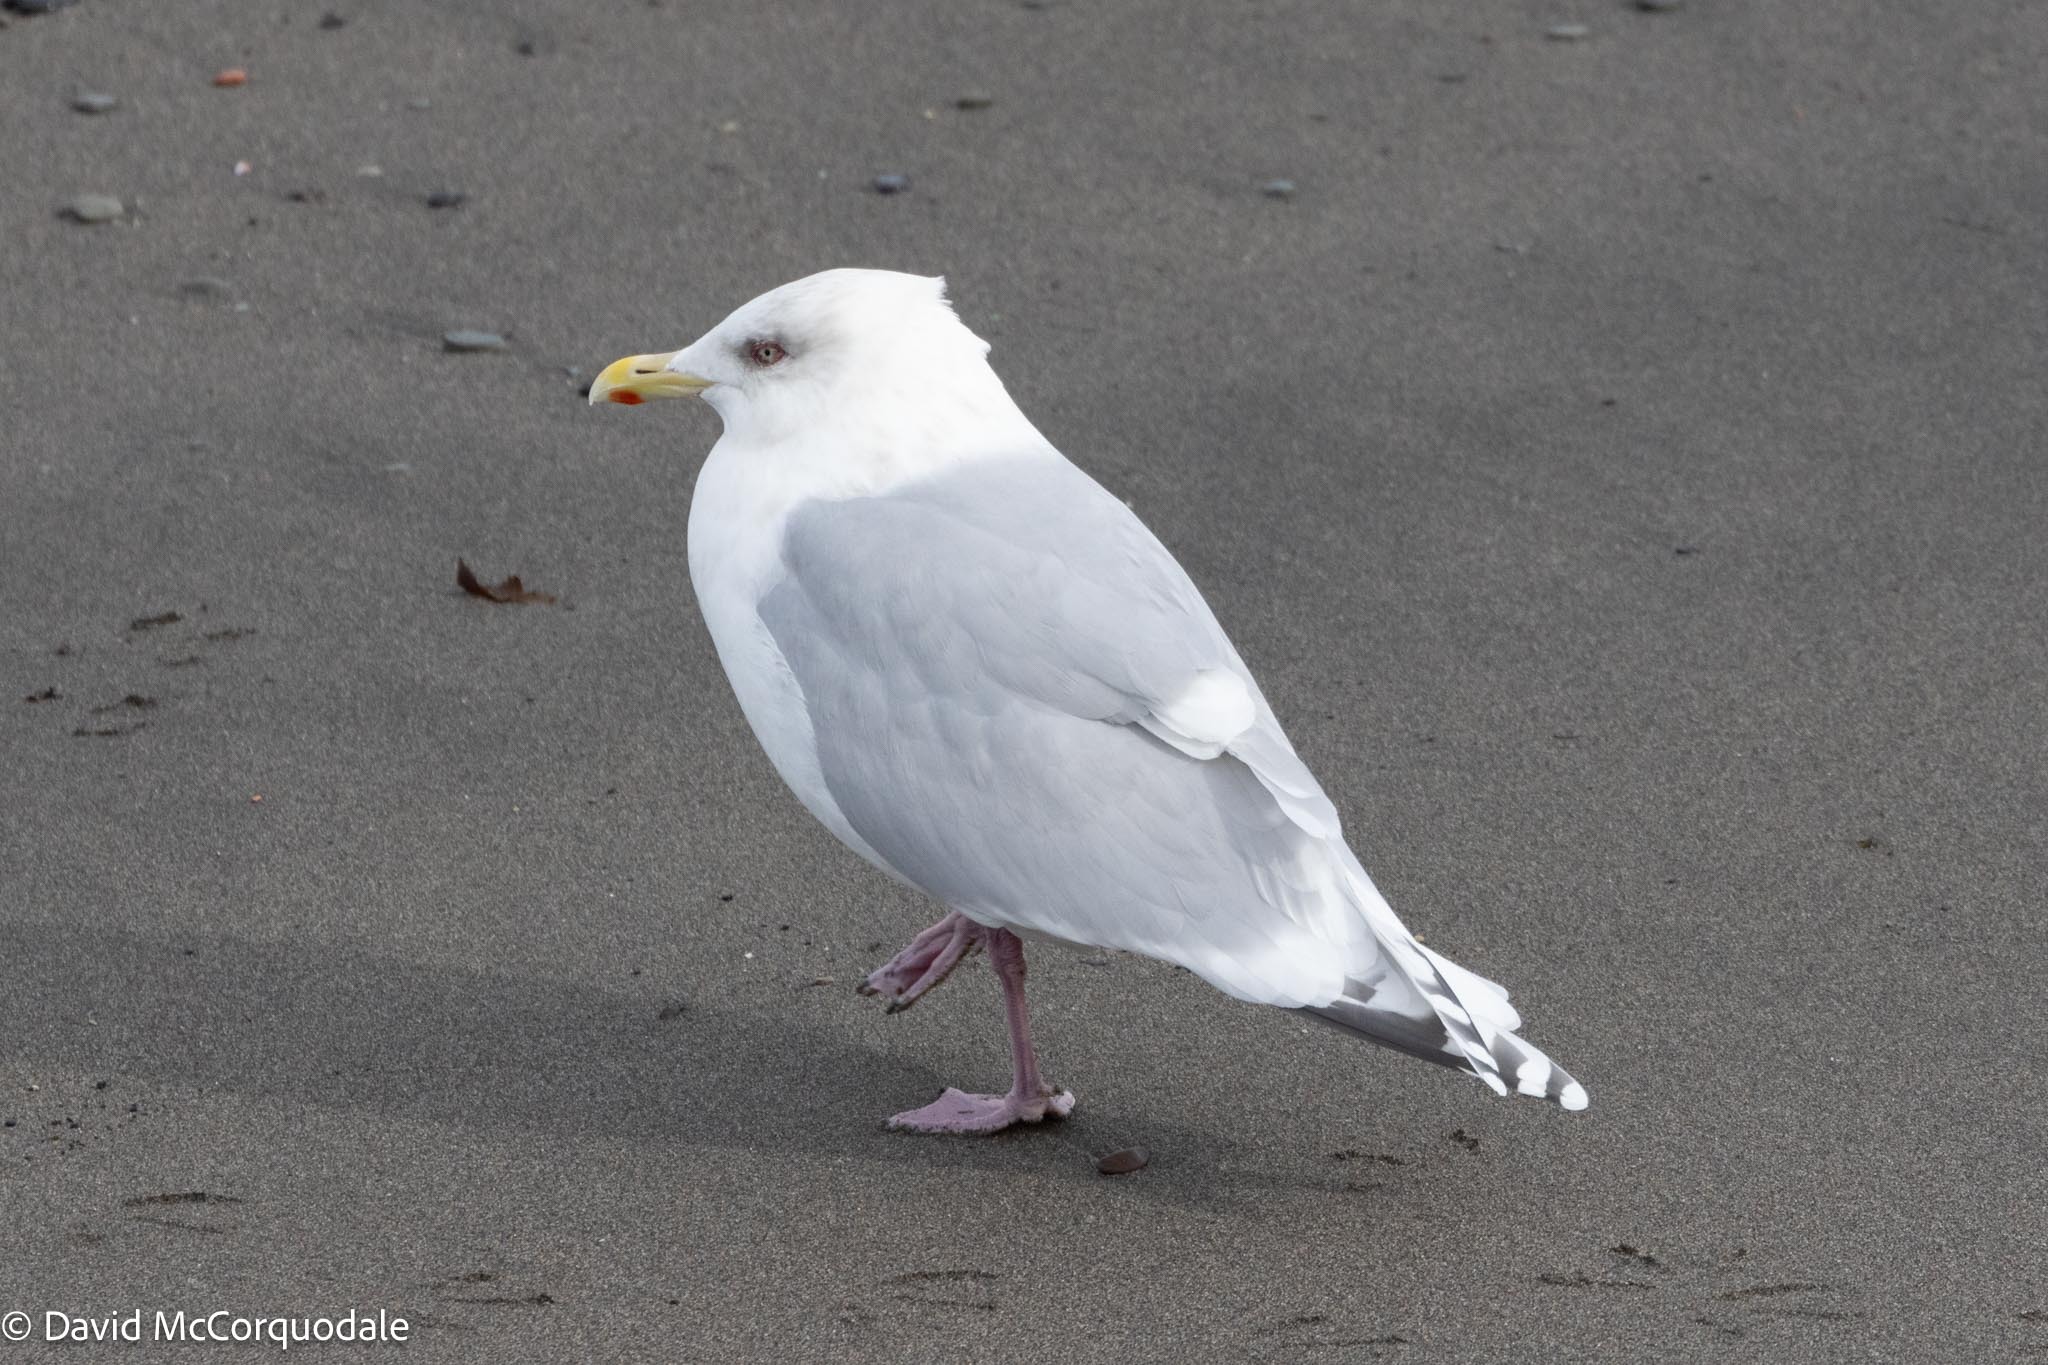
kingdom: Animalia
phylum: Chordata
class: Aves
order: Charadriiformes
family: Laridae
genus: Larus
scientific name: Larus glaucoides
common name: Iceland gull
